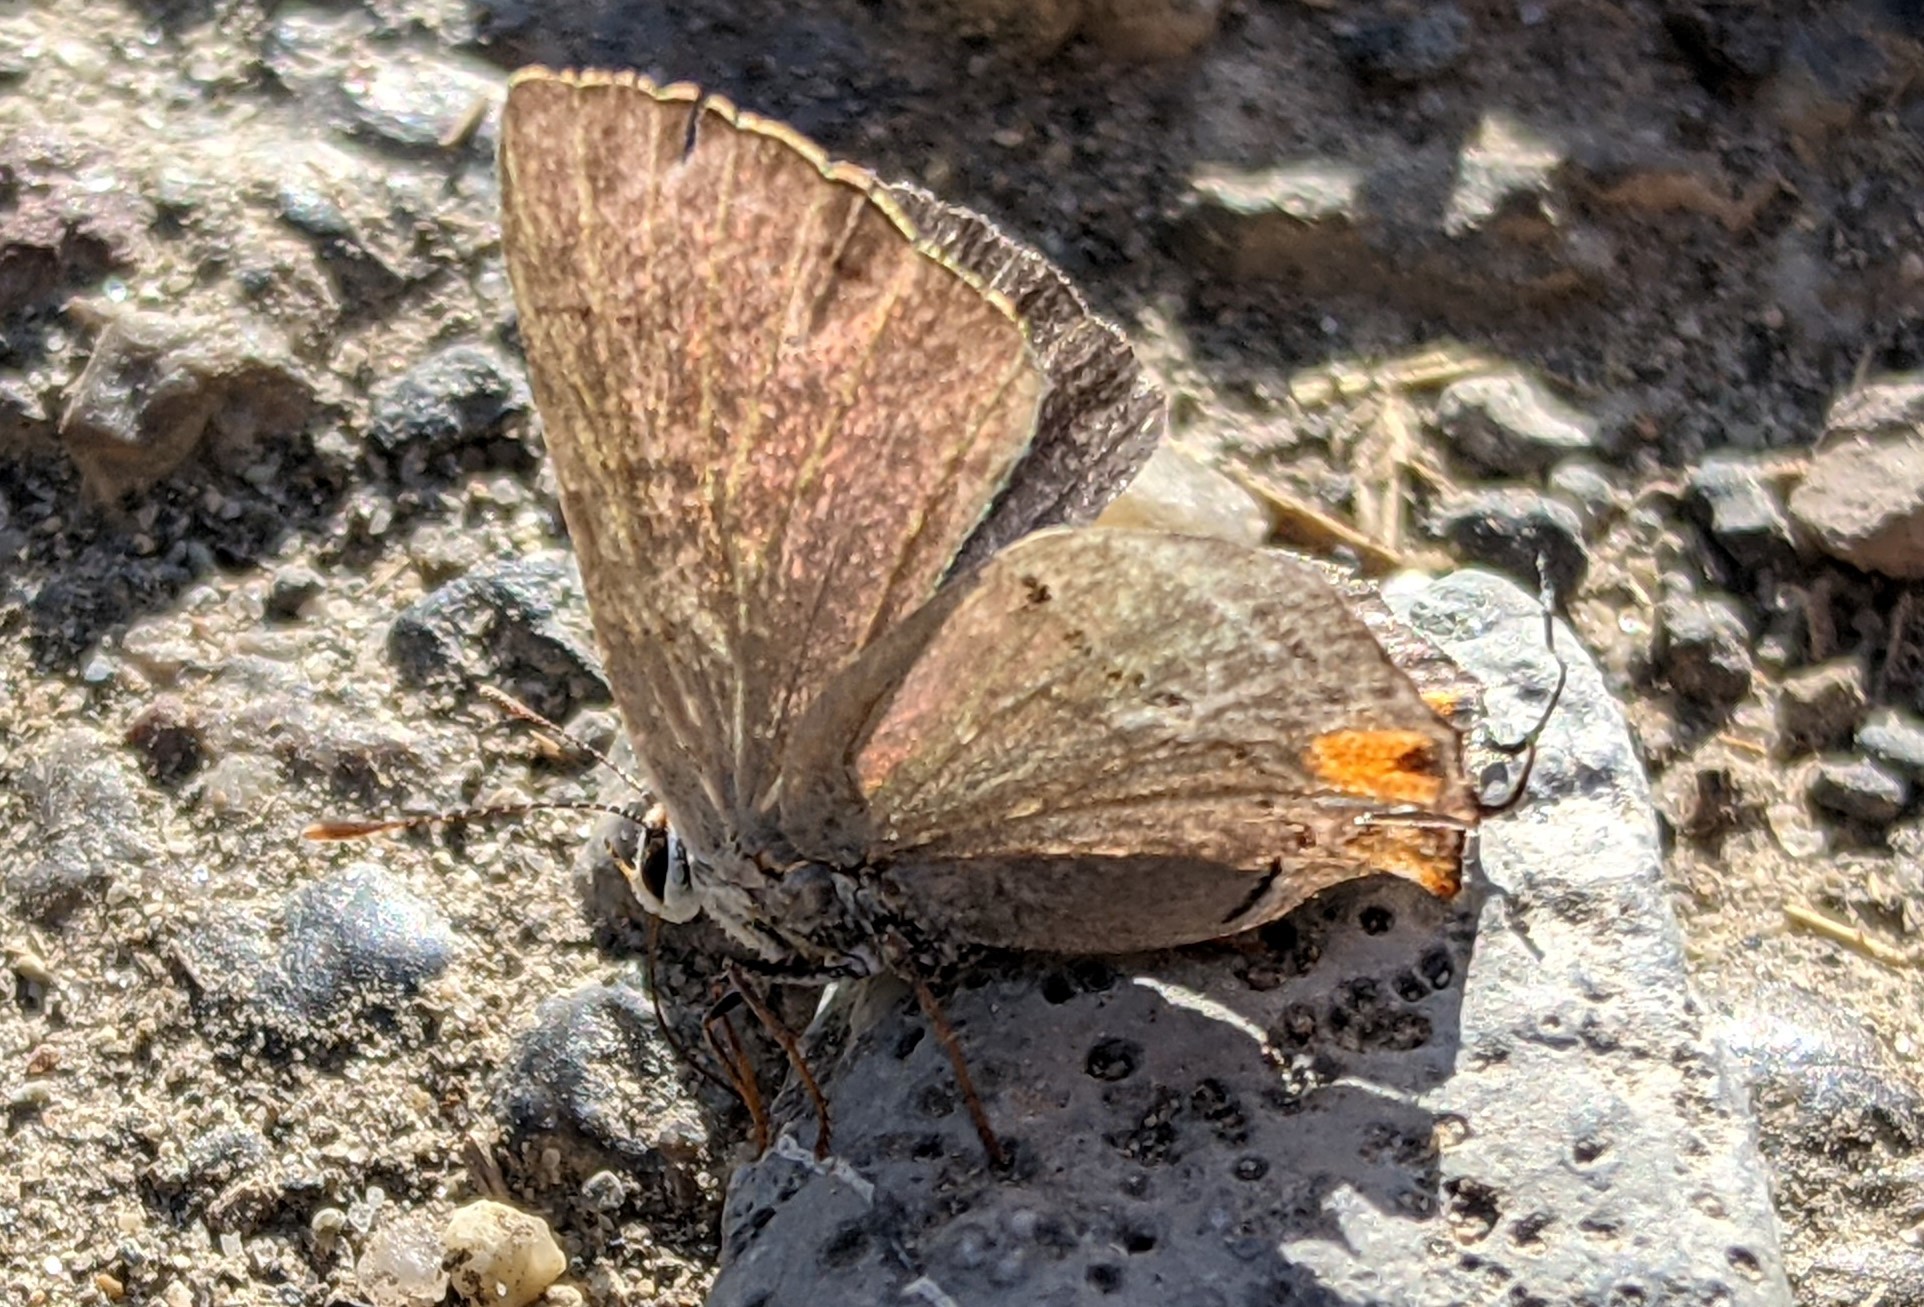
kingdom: Animalia
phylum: Arthropoda
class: Insecta
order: Lepidoptera
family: Lycaenidae
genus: Strymon
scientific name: Strymon melinus
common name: Gray hairstreak
